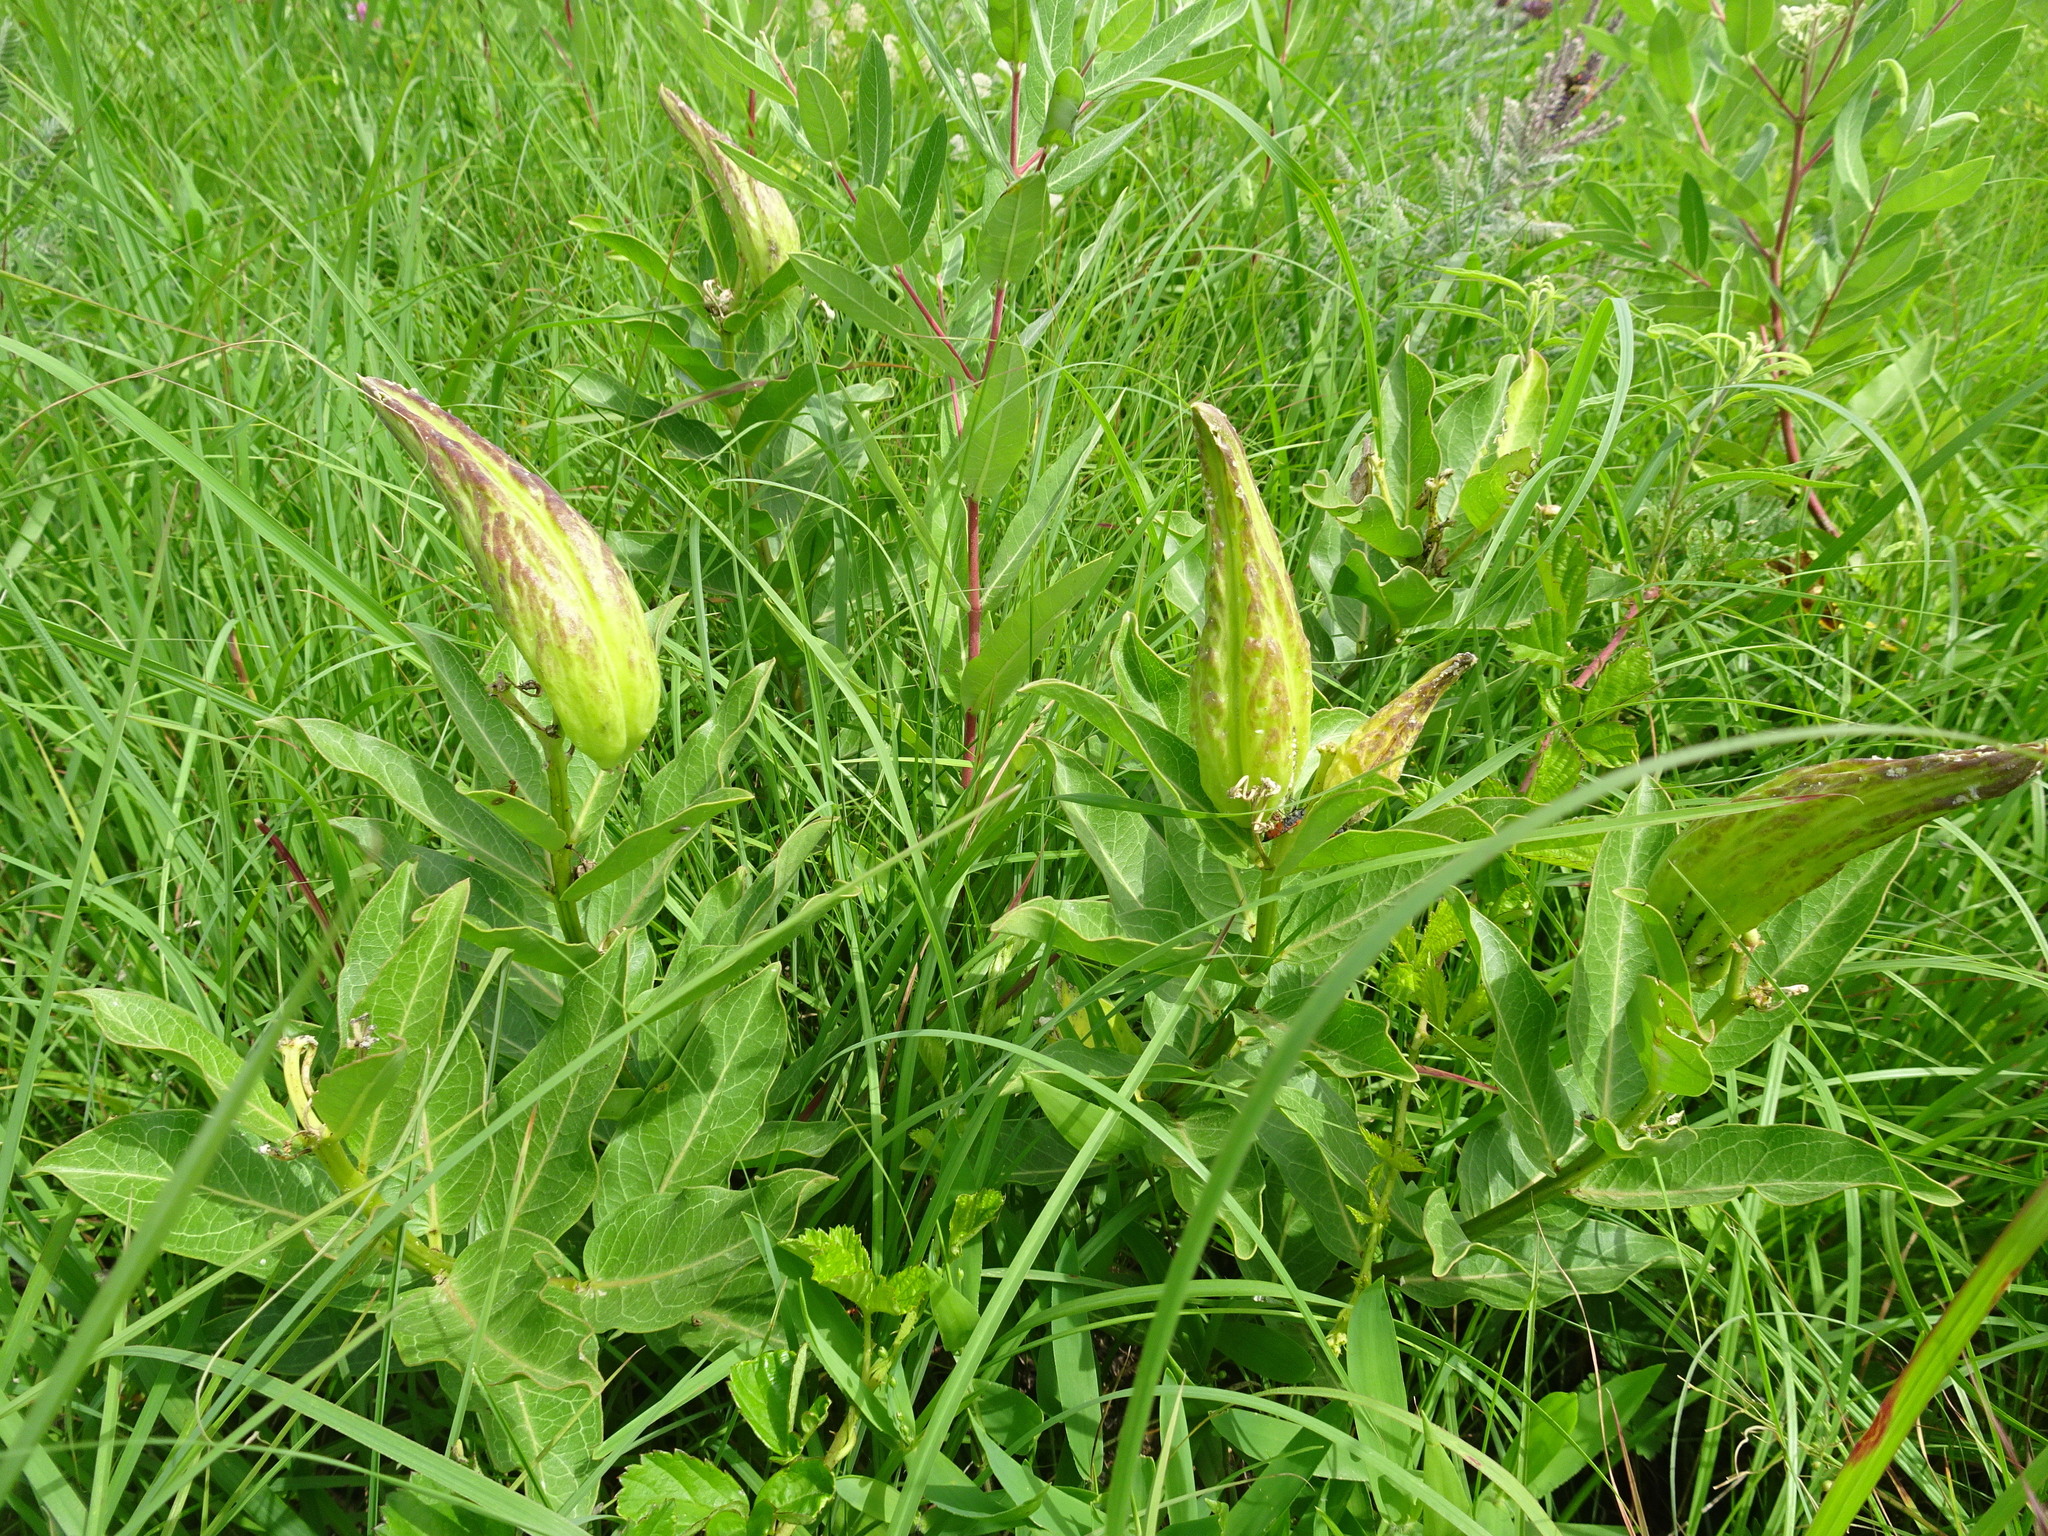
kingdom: Plantae
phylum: Tracheophyta
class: Magnoliopsida
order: Gentianales
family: Apocynaceae
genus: Asclepias
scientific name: Asclepias viridis
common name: Antelope-horns
